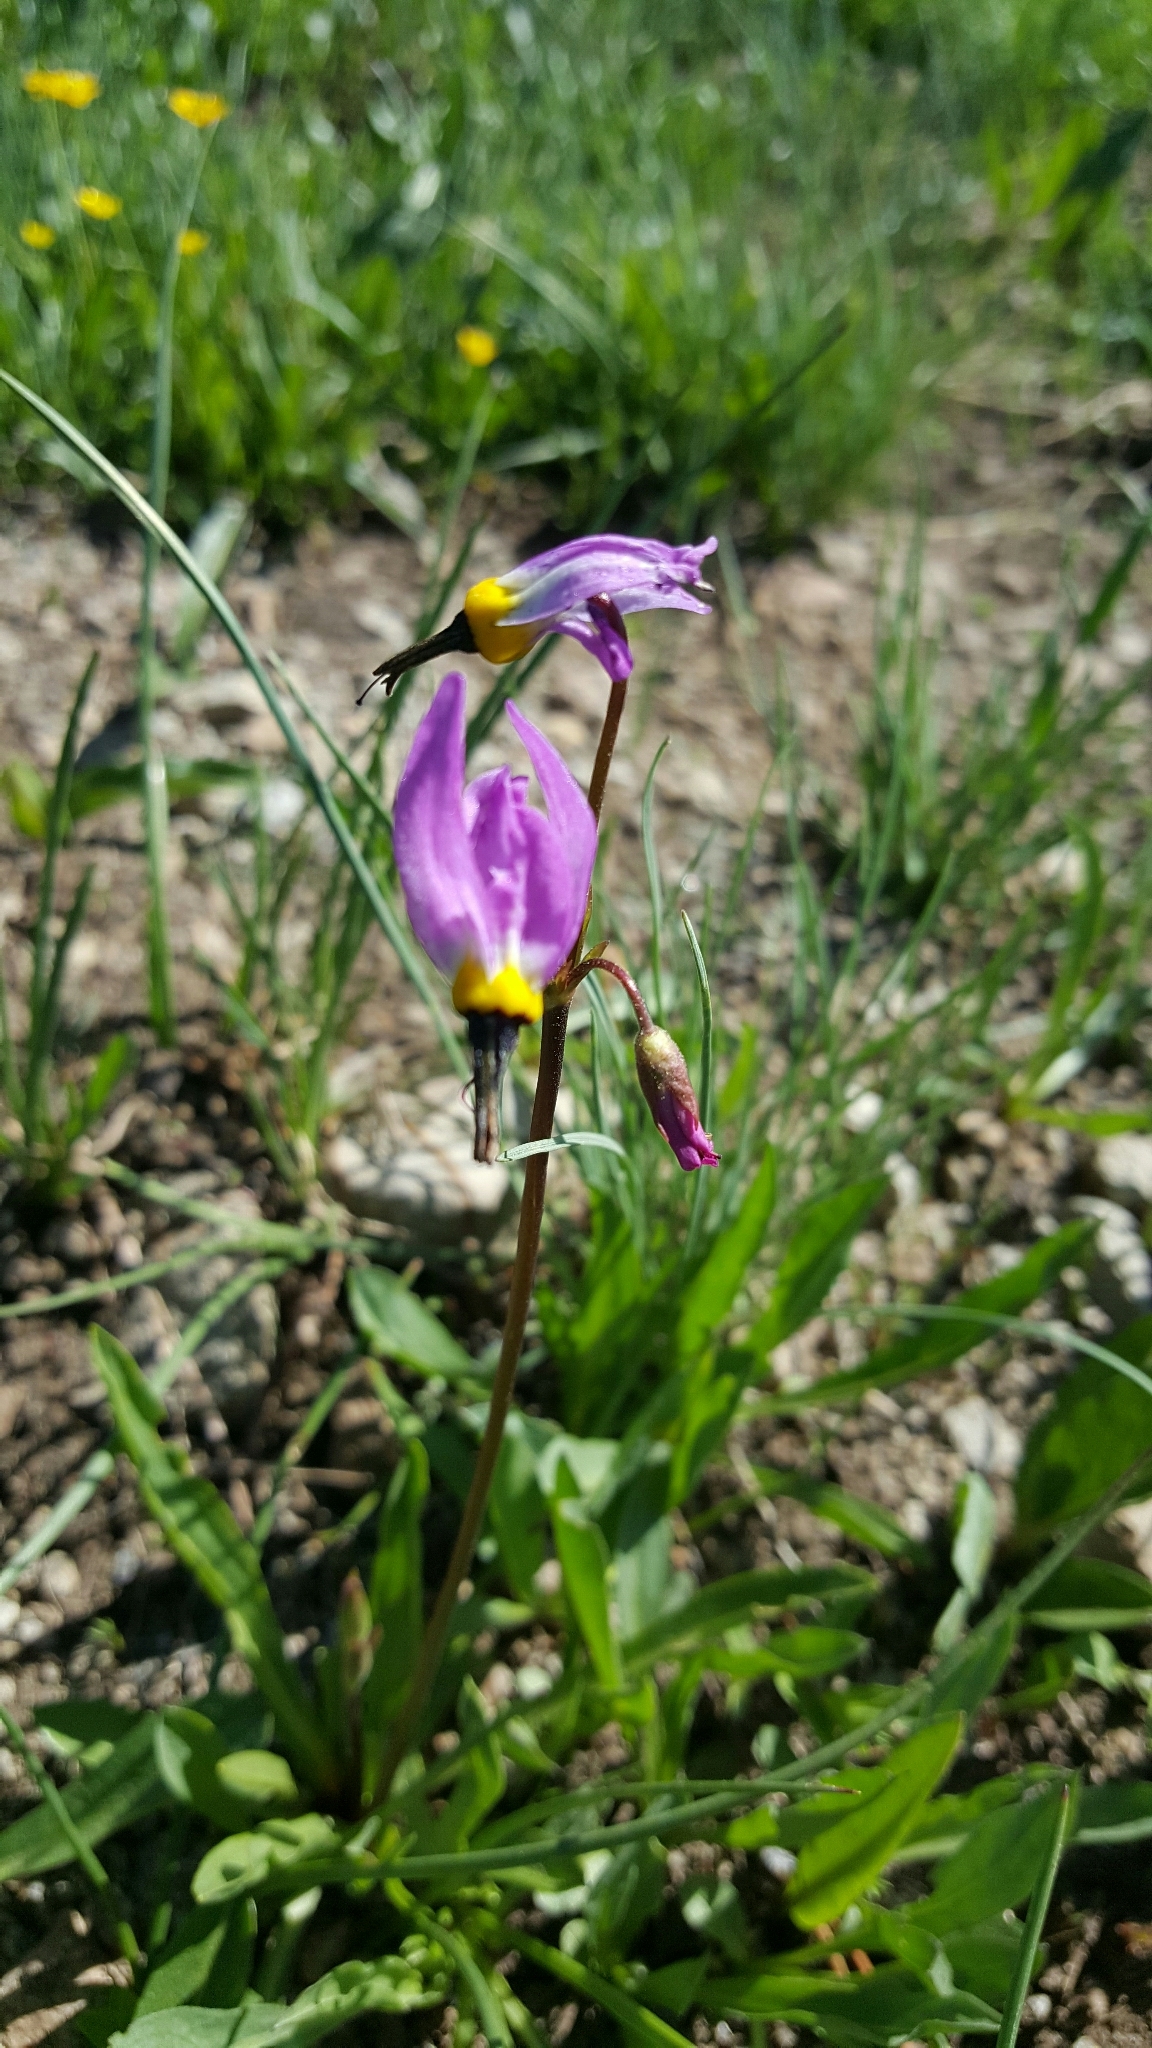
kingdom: Plantae
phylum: Tracheophyta
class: Magnoliopsida
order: Ericales
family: Primulaceae
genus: Dodecatheon
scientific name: Dodecatheon jeffreyanum
